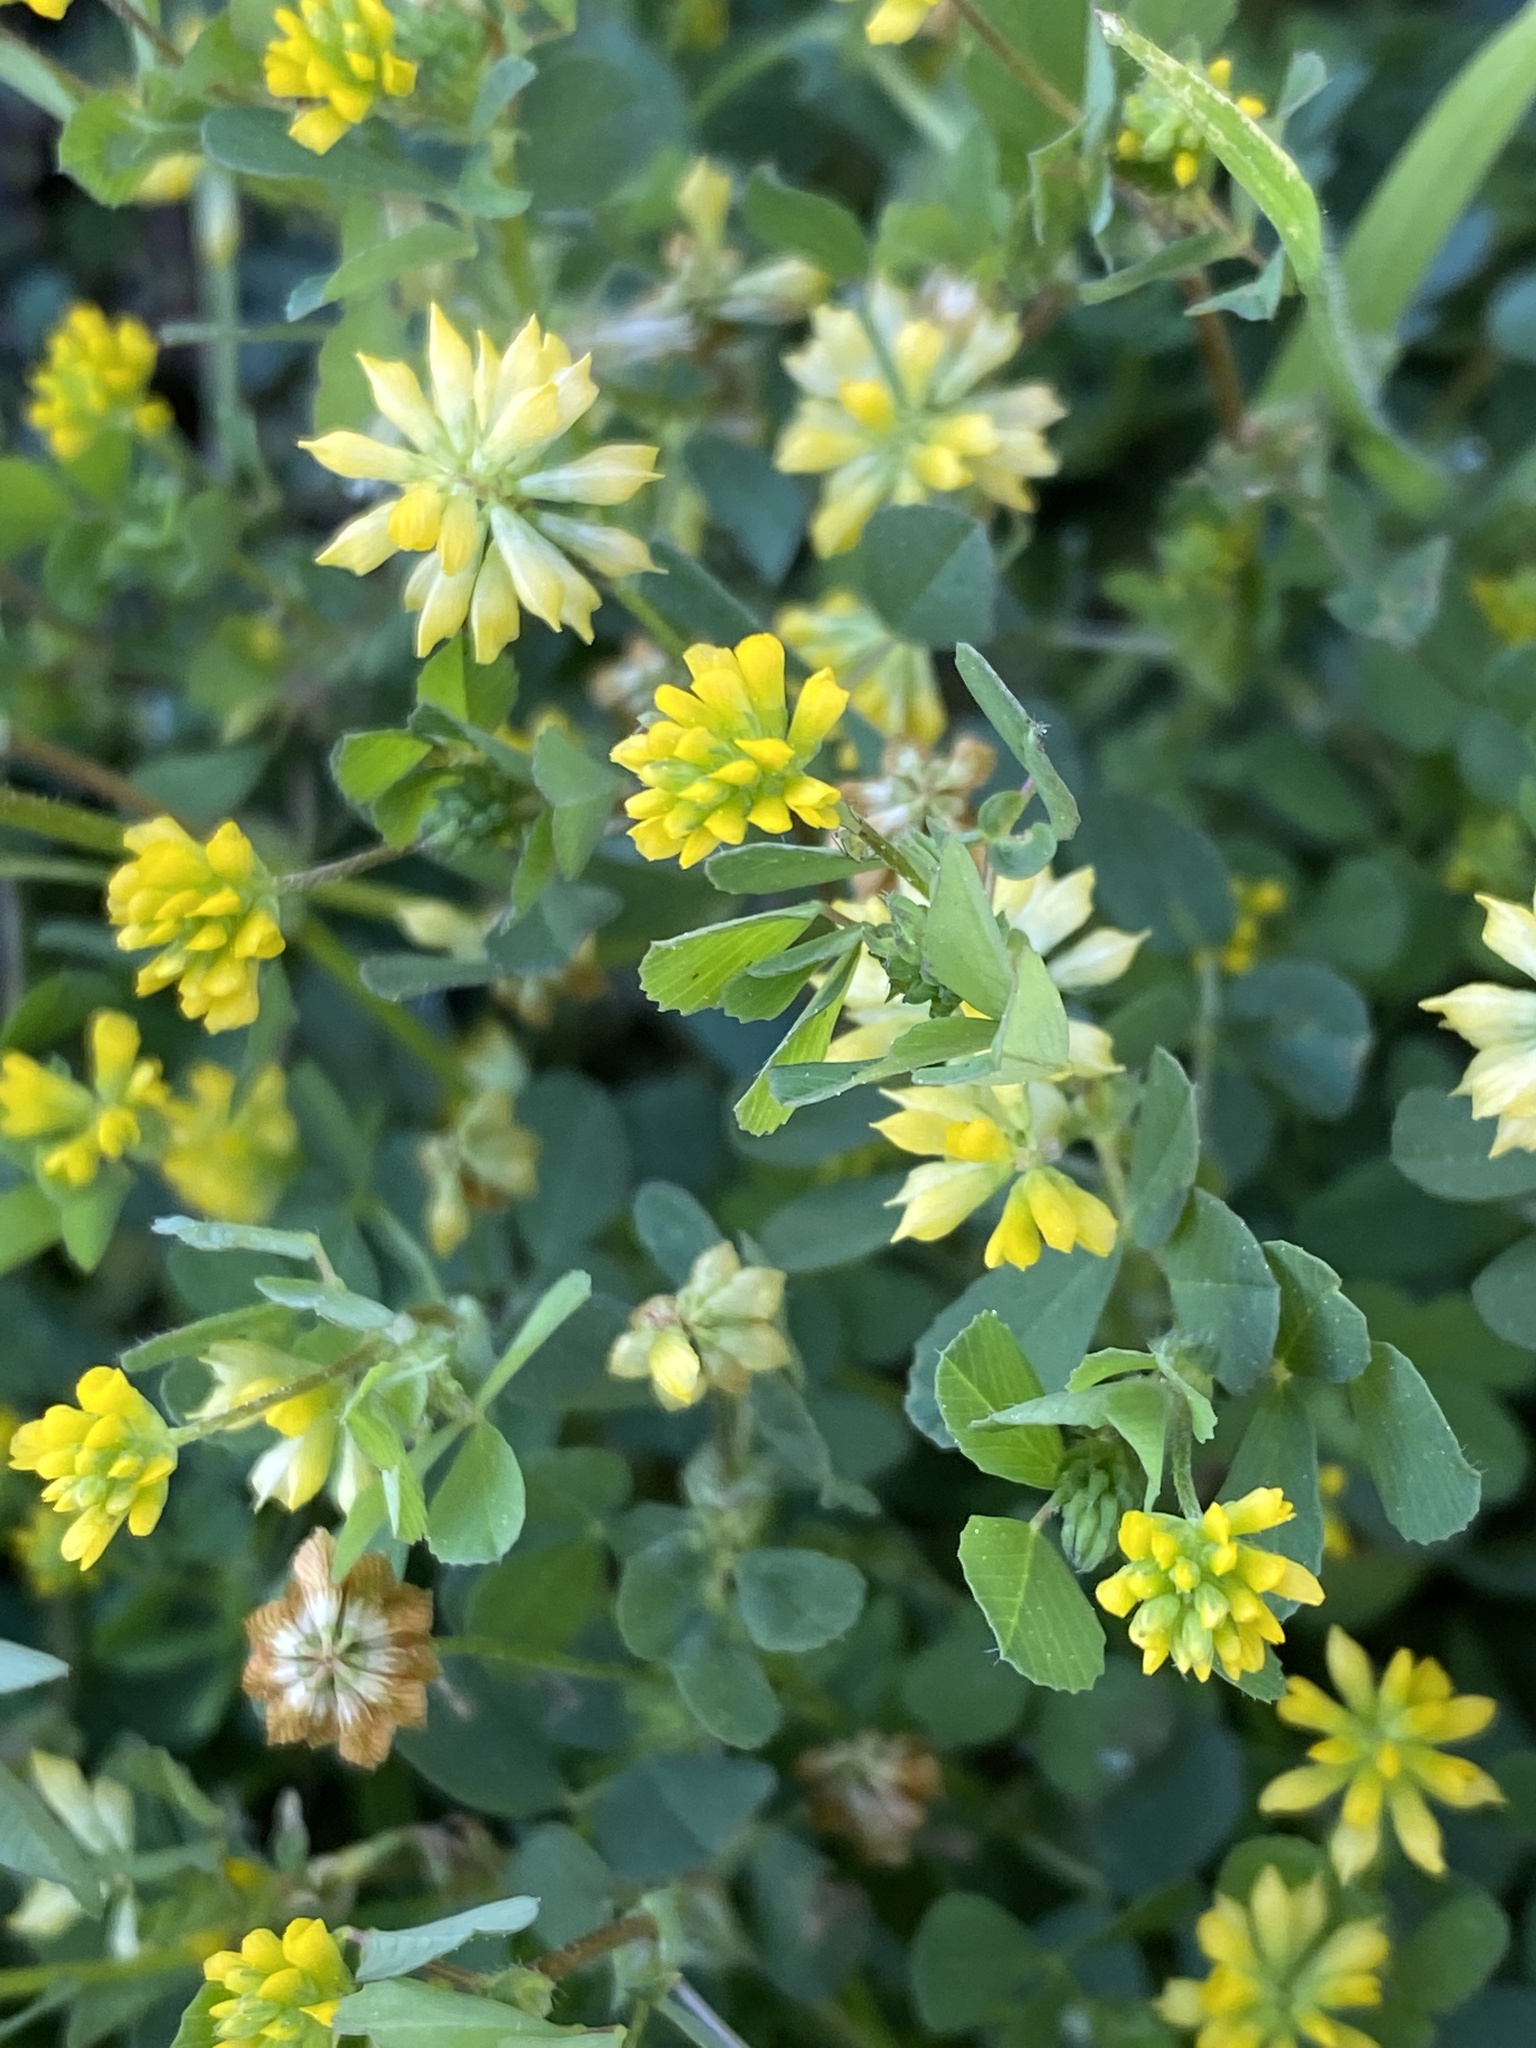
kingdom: Plantae
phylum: Tracheophyta
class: Magnoliopsida
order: Fabales
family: Fabaceae
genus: Trifolium
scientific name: Trifolium dubium
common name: Suckling clover
